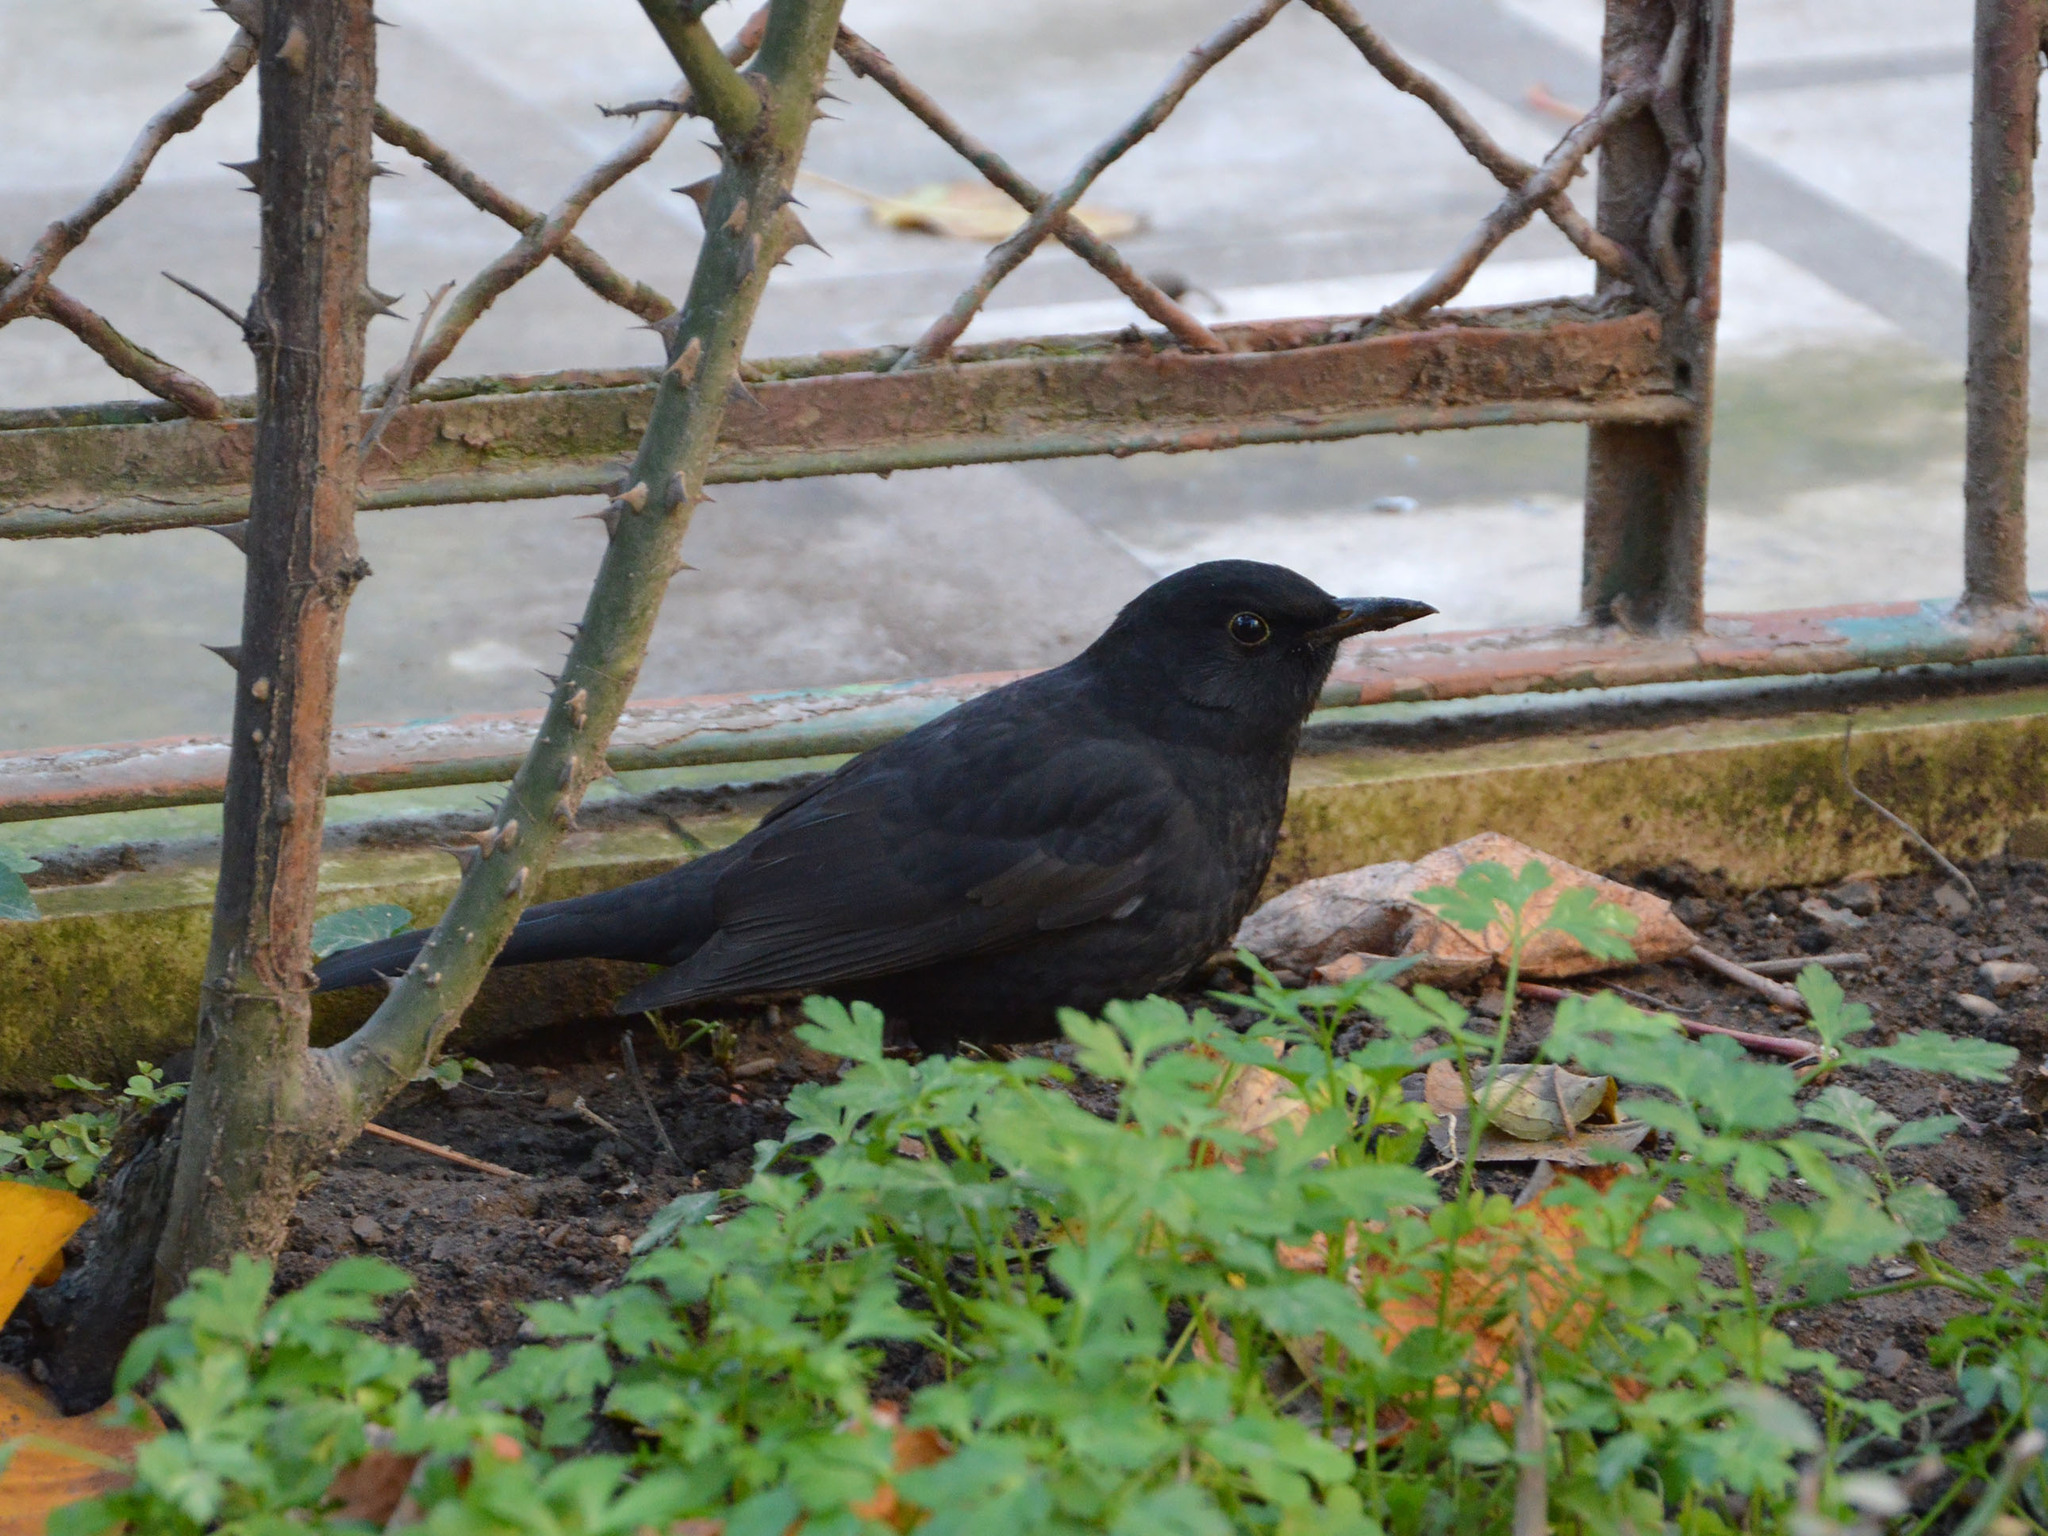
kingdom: Animalia
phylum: Chordata
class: Aves
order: Passeriformes
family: Turdidae
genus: Turdus
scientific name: Turdus merula
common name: Common blackbird
